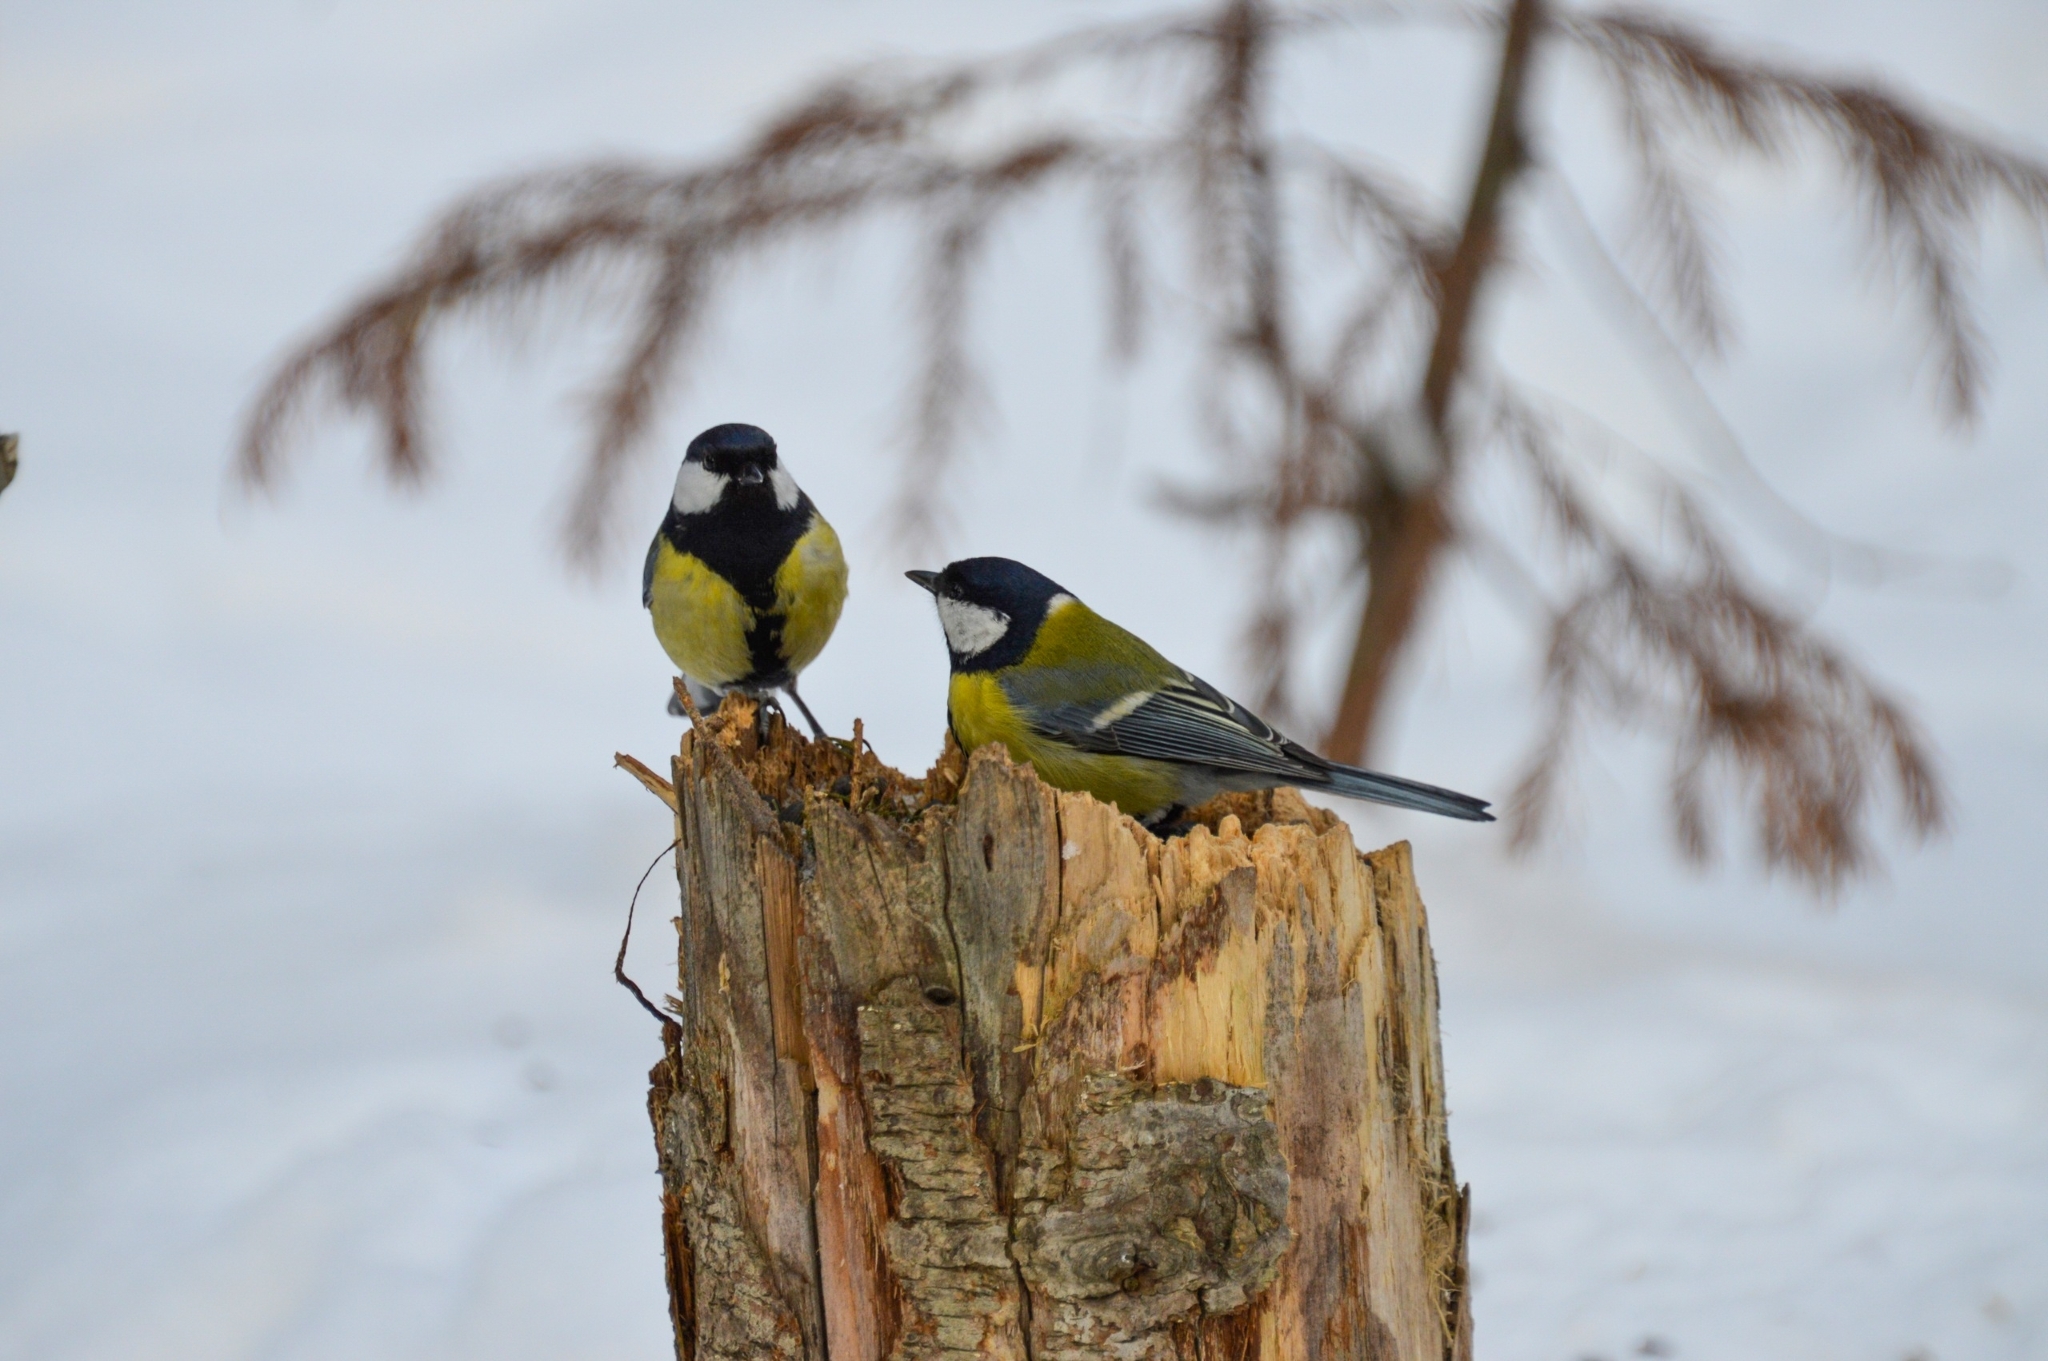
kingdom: Animalia
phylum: Chordata
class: Aves
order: Passeriformes
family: Paridae
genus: Parus
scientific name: Parus major
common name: Great tit
